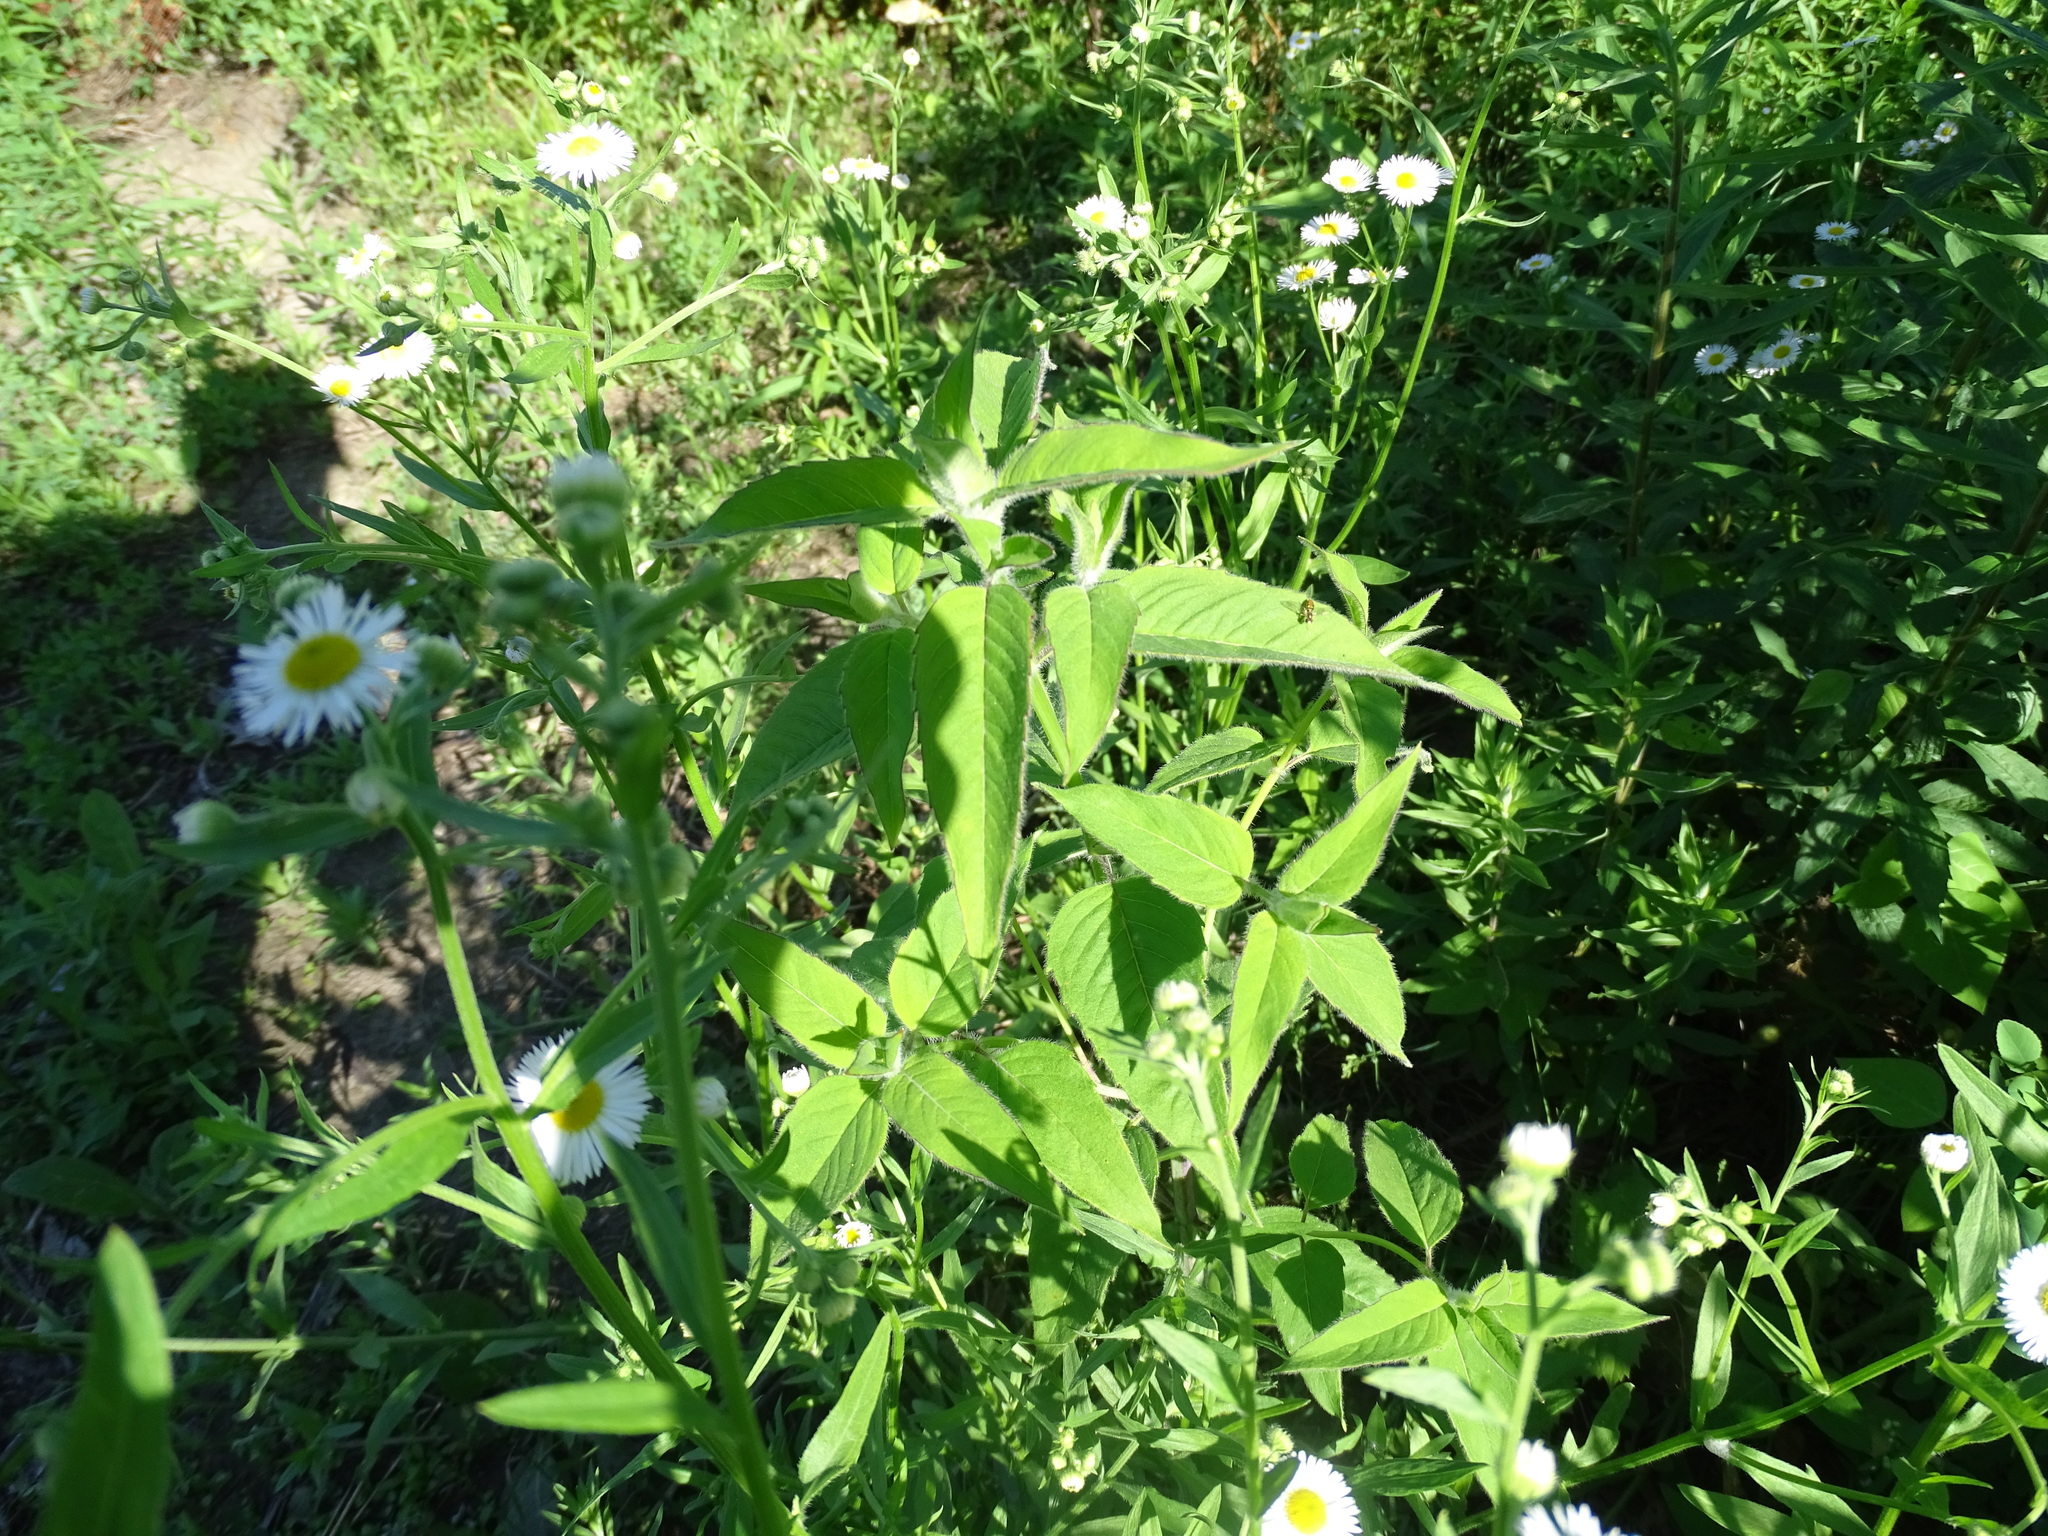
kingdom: Plantae
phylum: Tracheophyta
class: Magnoliopsida
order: Lamiales
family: Lamiaceae
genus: Monarda
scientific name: Monarda fistulosa
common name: Purple beebalm
